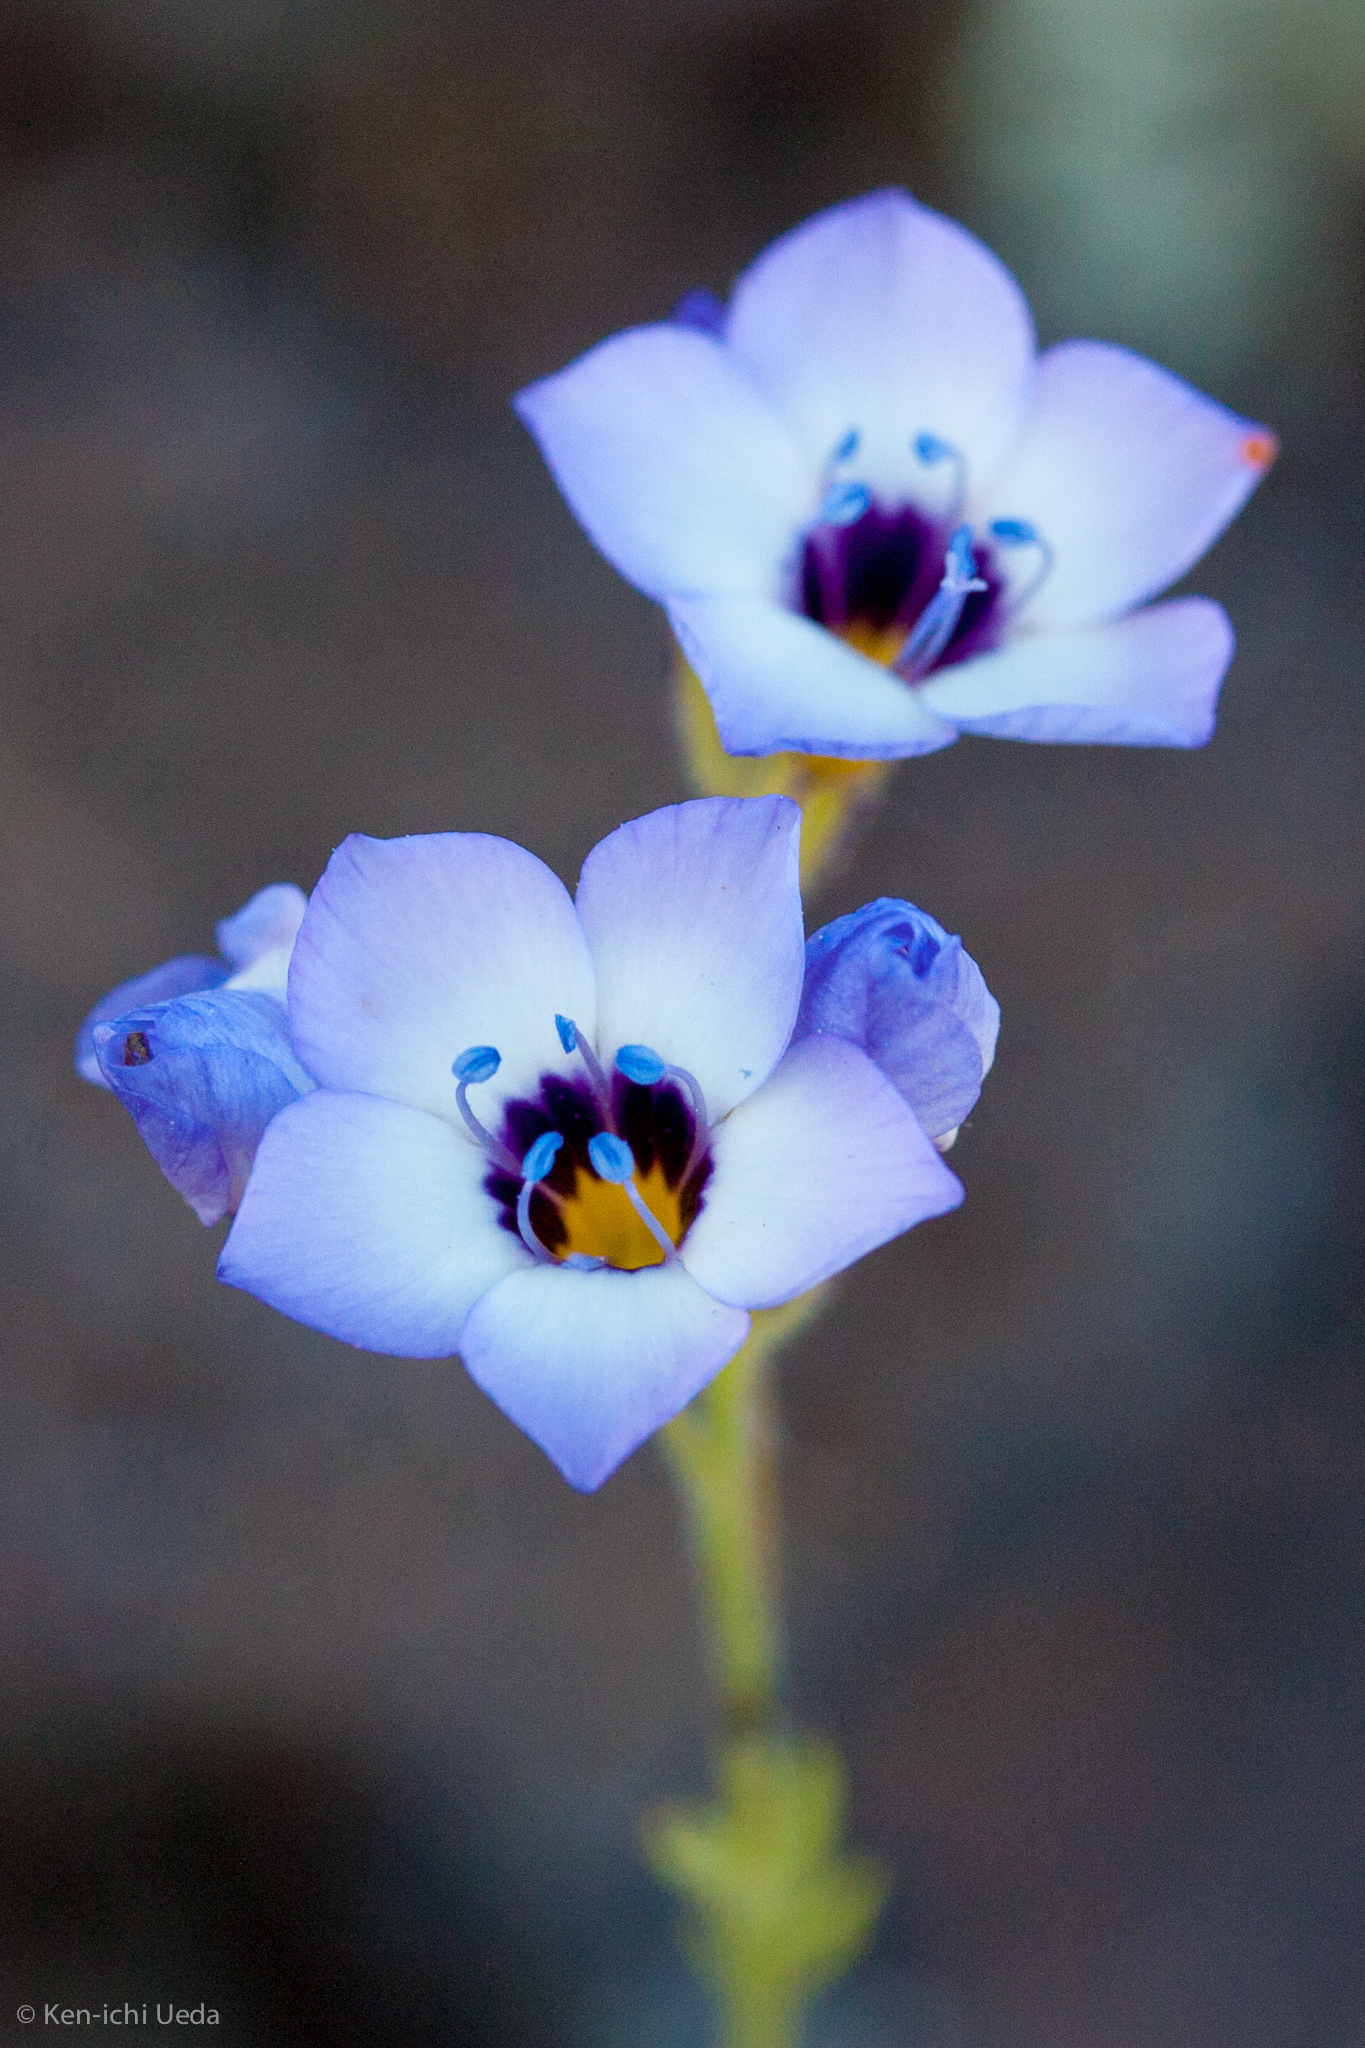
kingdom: Plantae
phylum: Tracheophyta
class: Magnoliopsida
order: Ericales
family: Polemoniaceae
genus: Gilia
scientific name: Gilia tricolor
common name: Bird's-eyes
